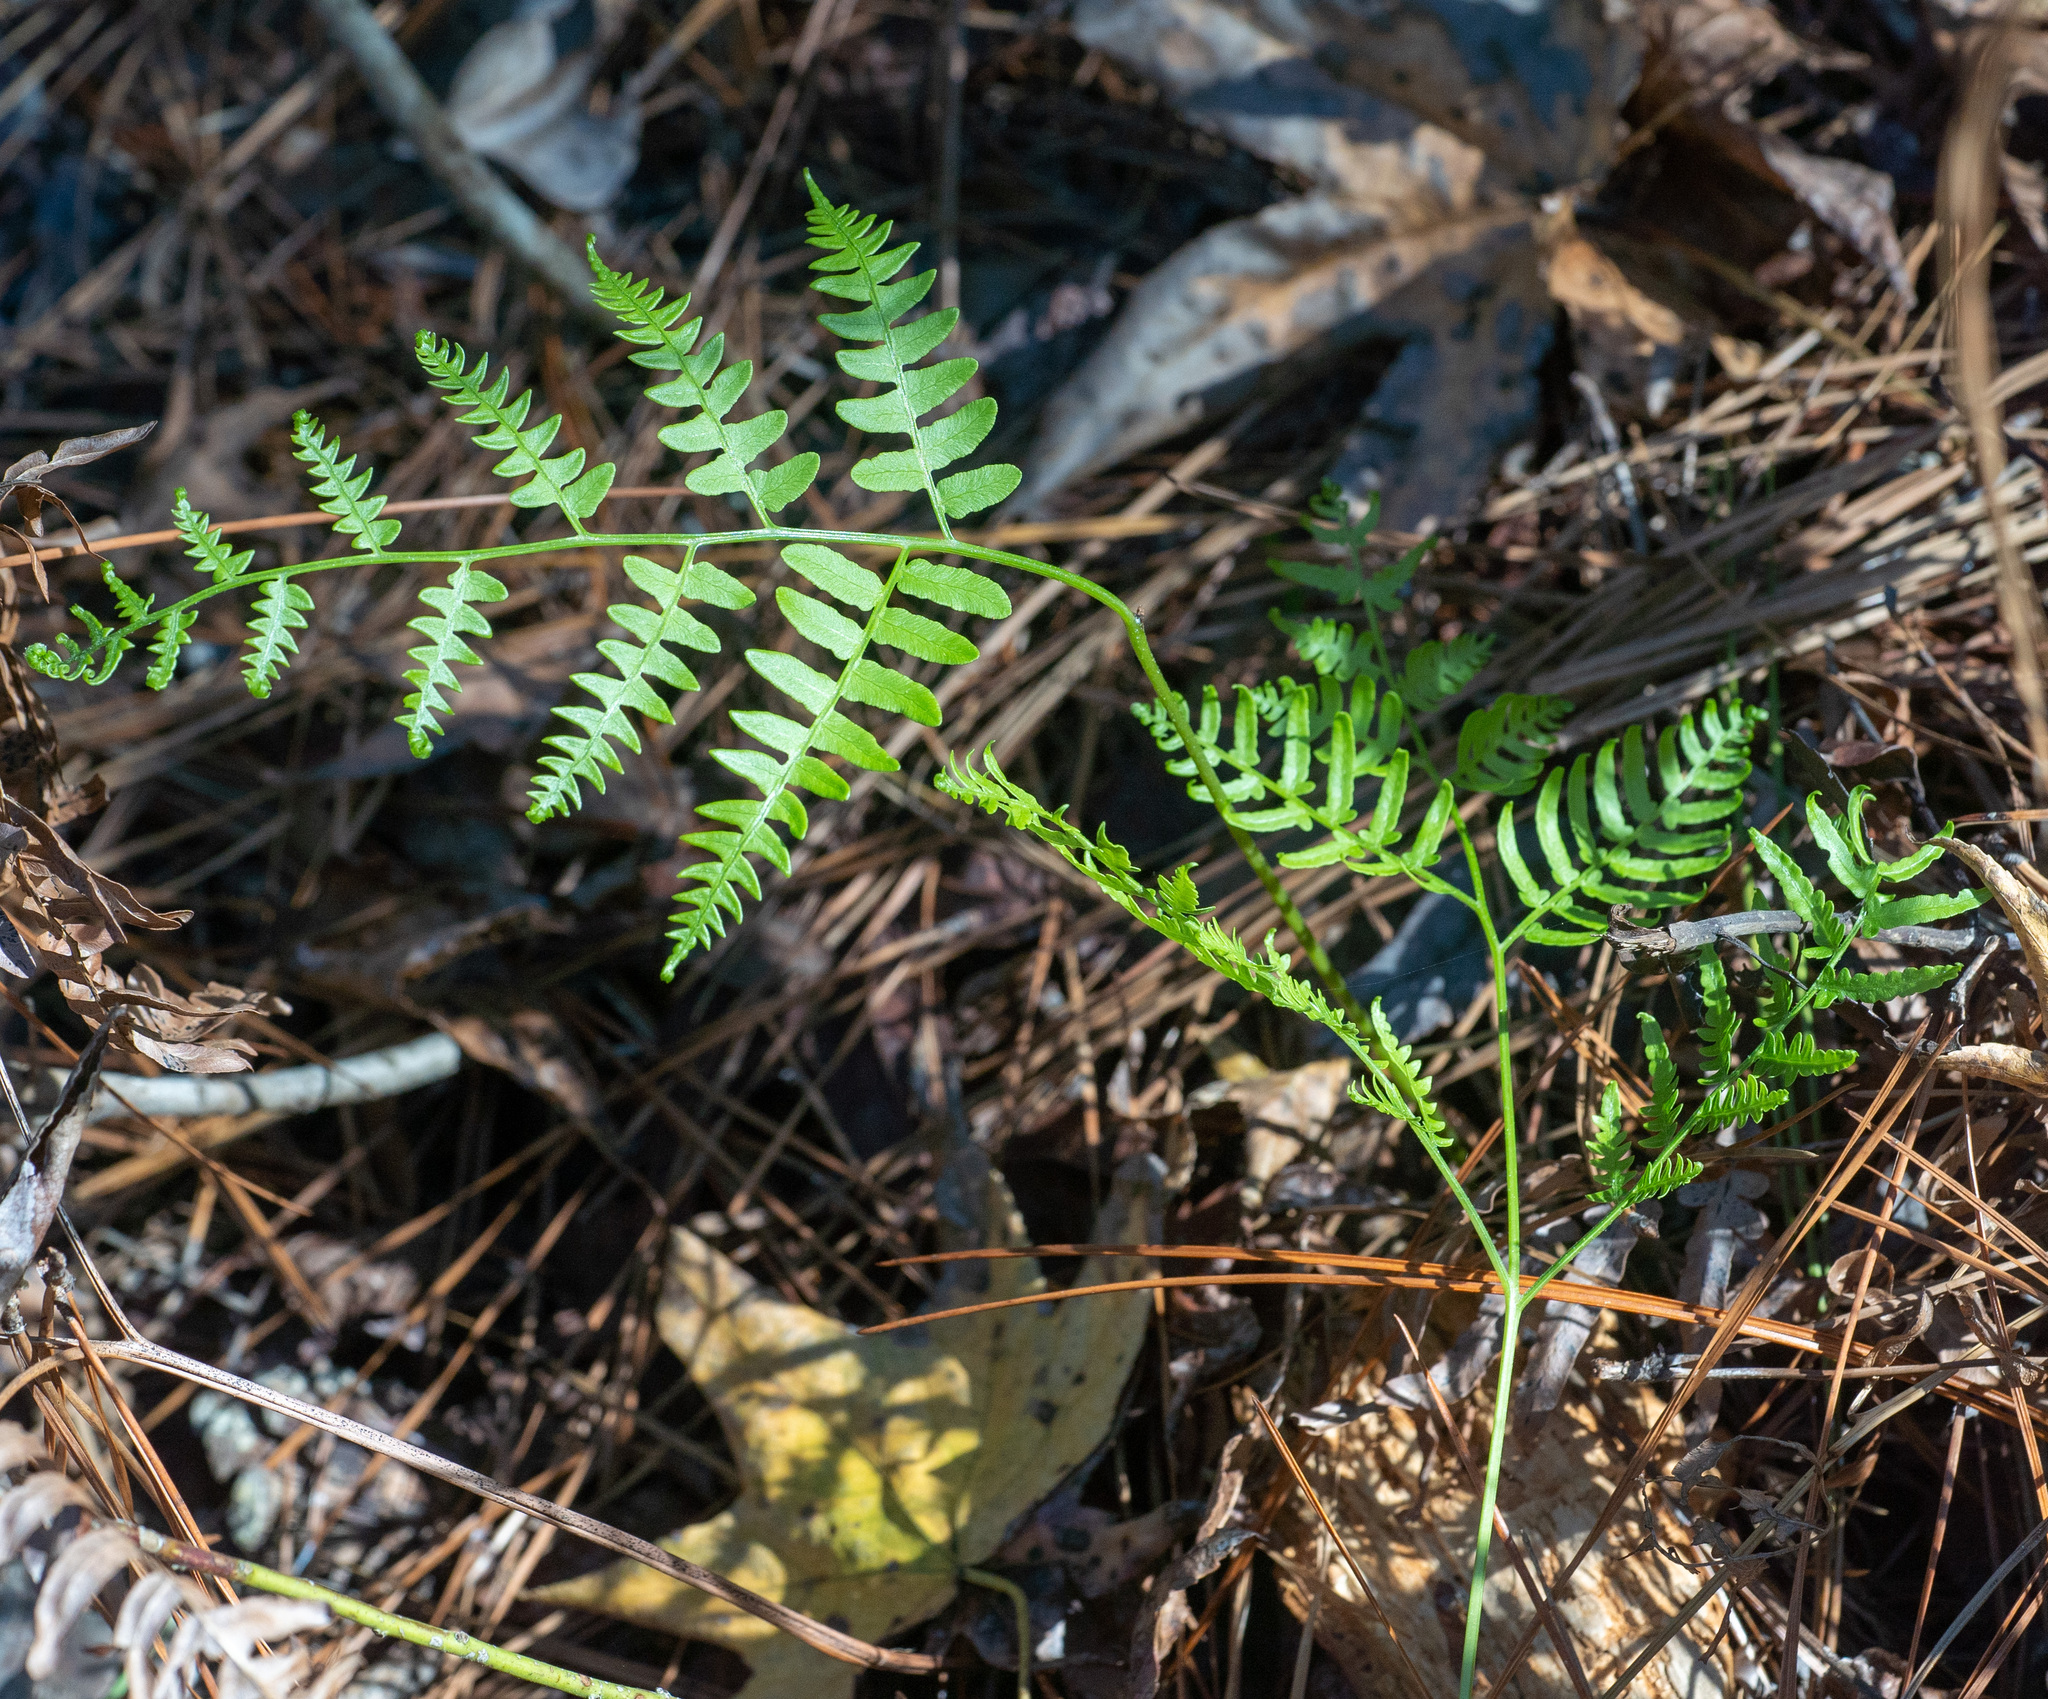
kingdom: Plantae
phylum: Tracheophyta
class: Polypodiopsida
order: Polypodiales
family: Dennstaedtiaceae
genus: Pteridium
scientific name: Pteridium
